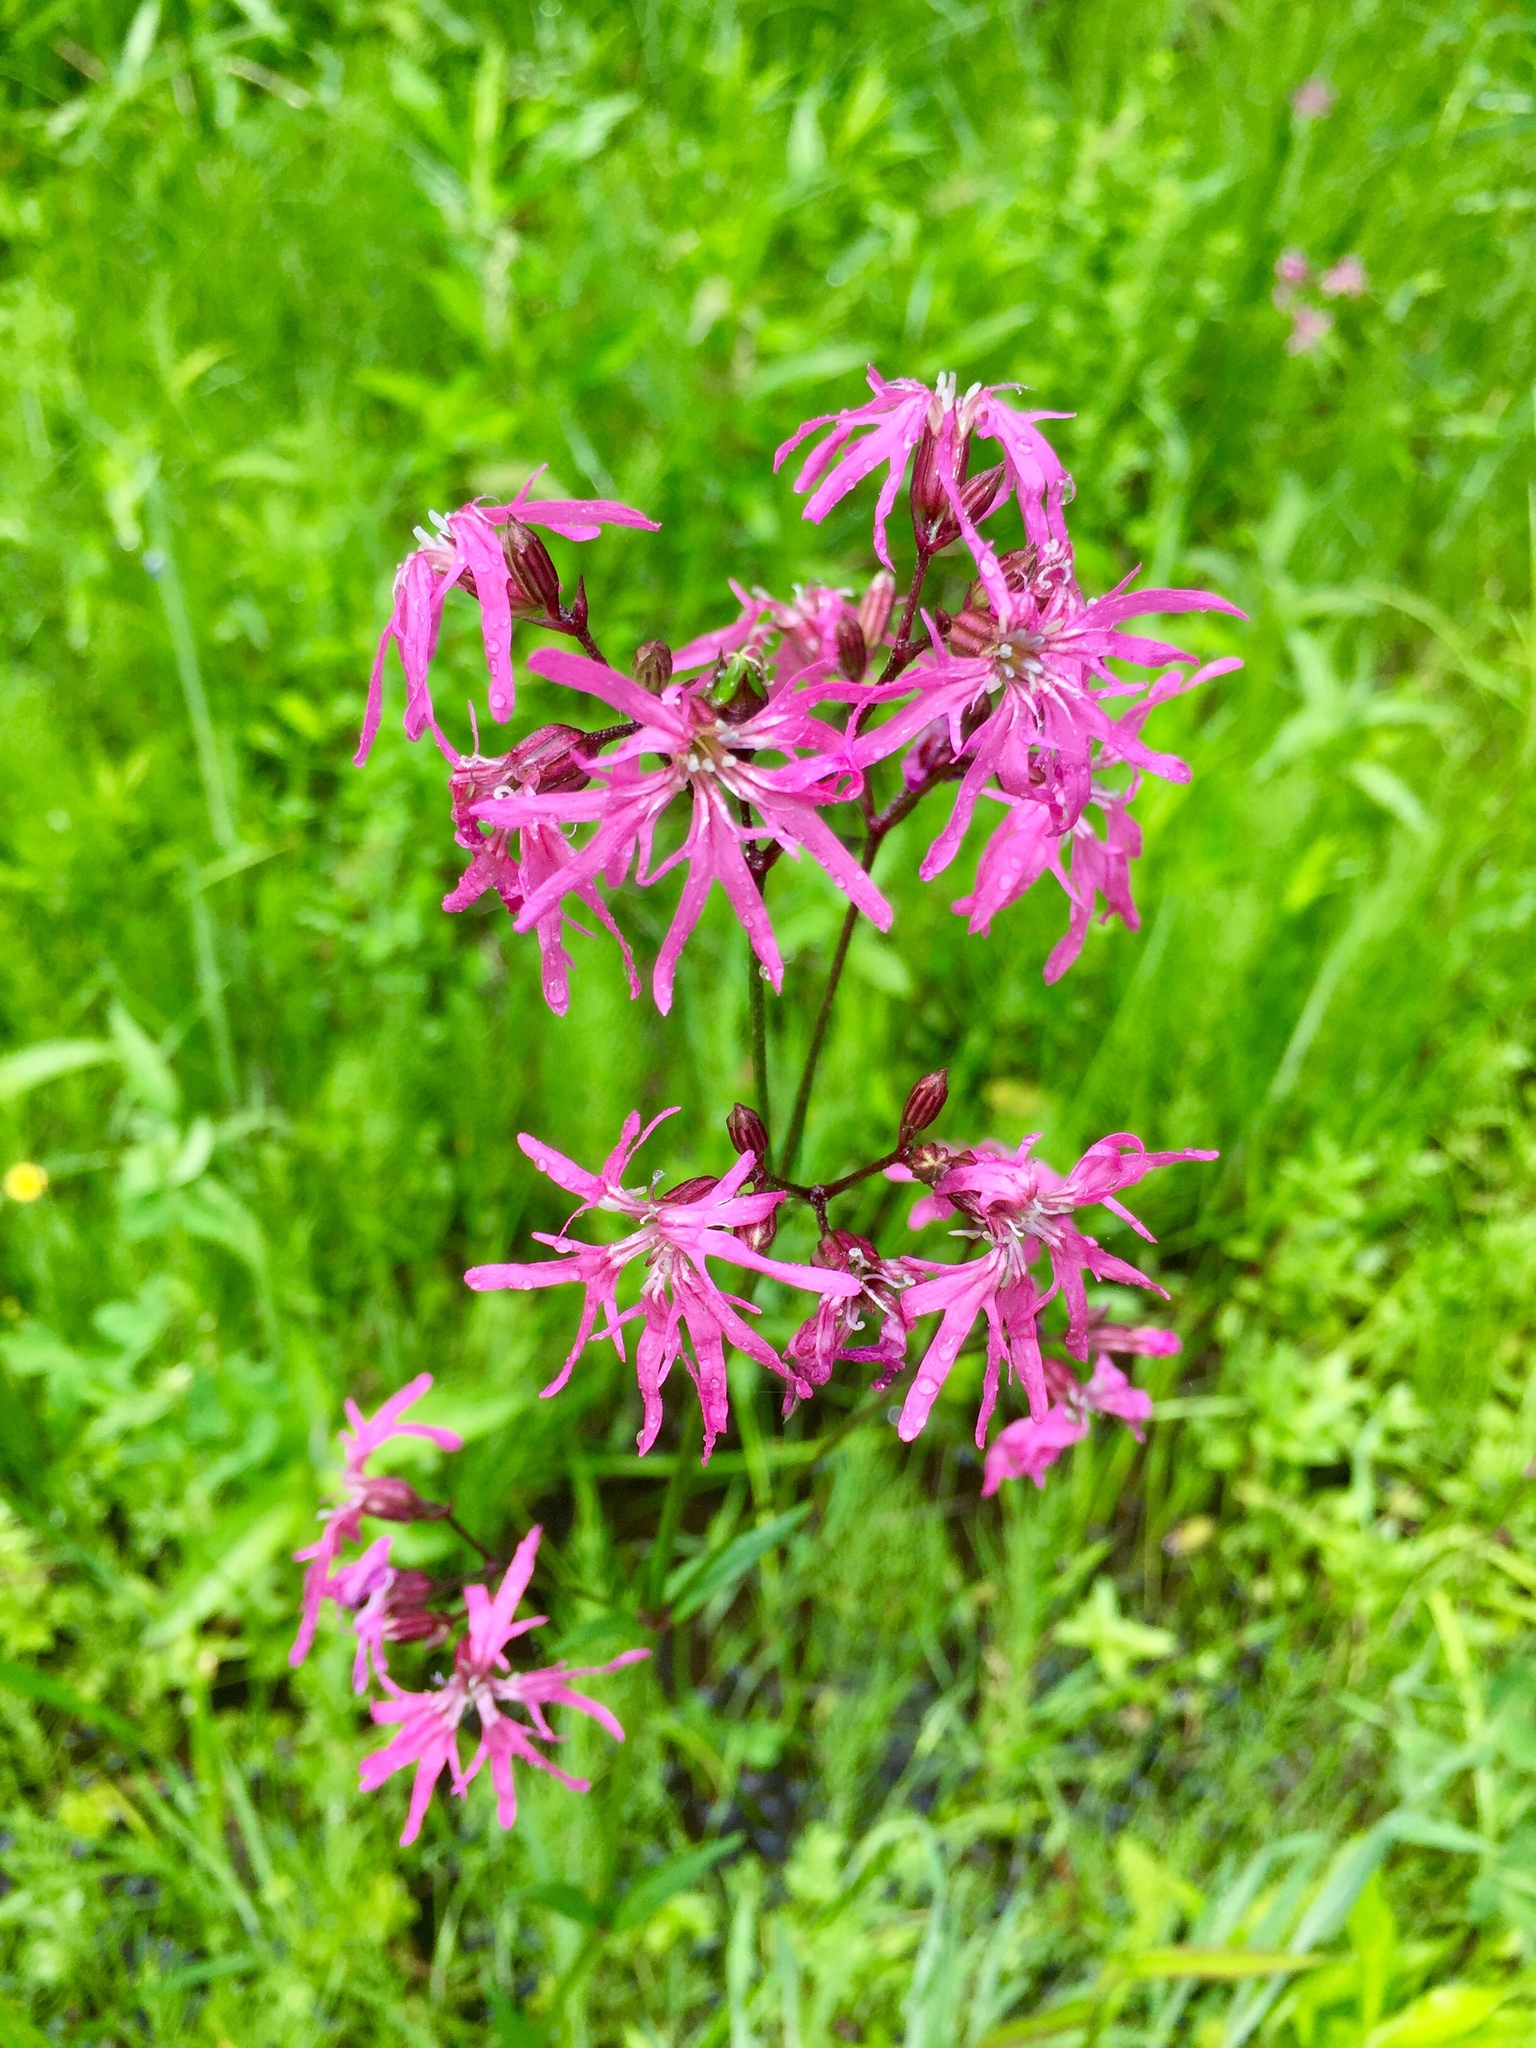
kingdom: Plantae
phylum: Tracheophyta
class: Magnoliopsida
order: Caryophyllales
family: Caryophyllaceae
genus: Silene
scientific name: Silene flos-cuculi
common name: Ragged-robin
